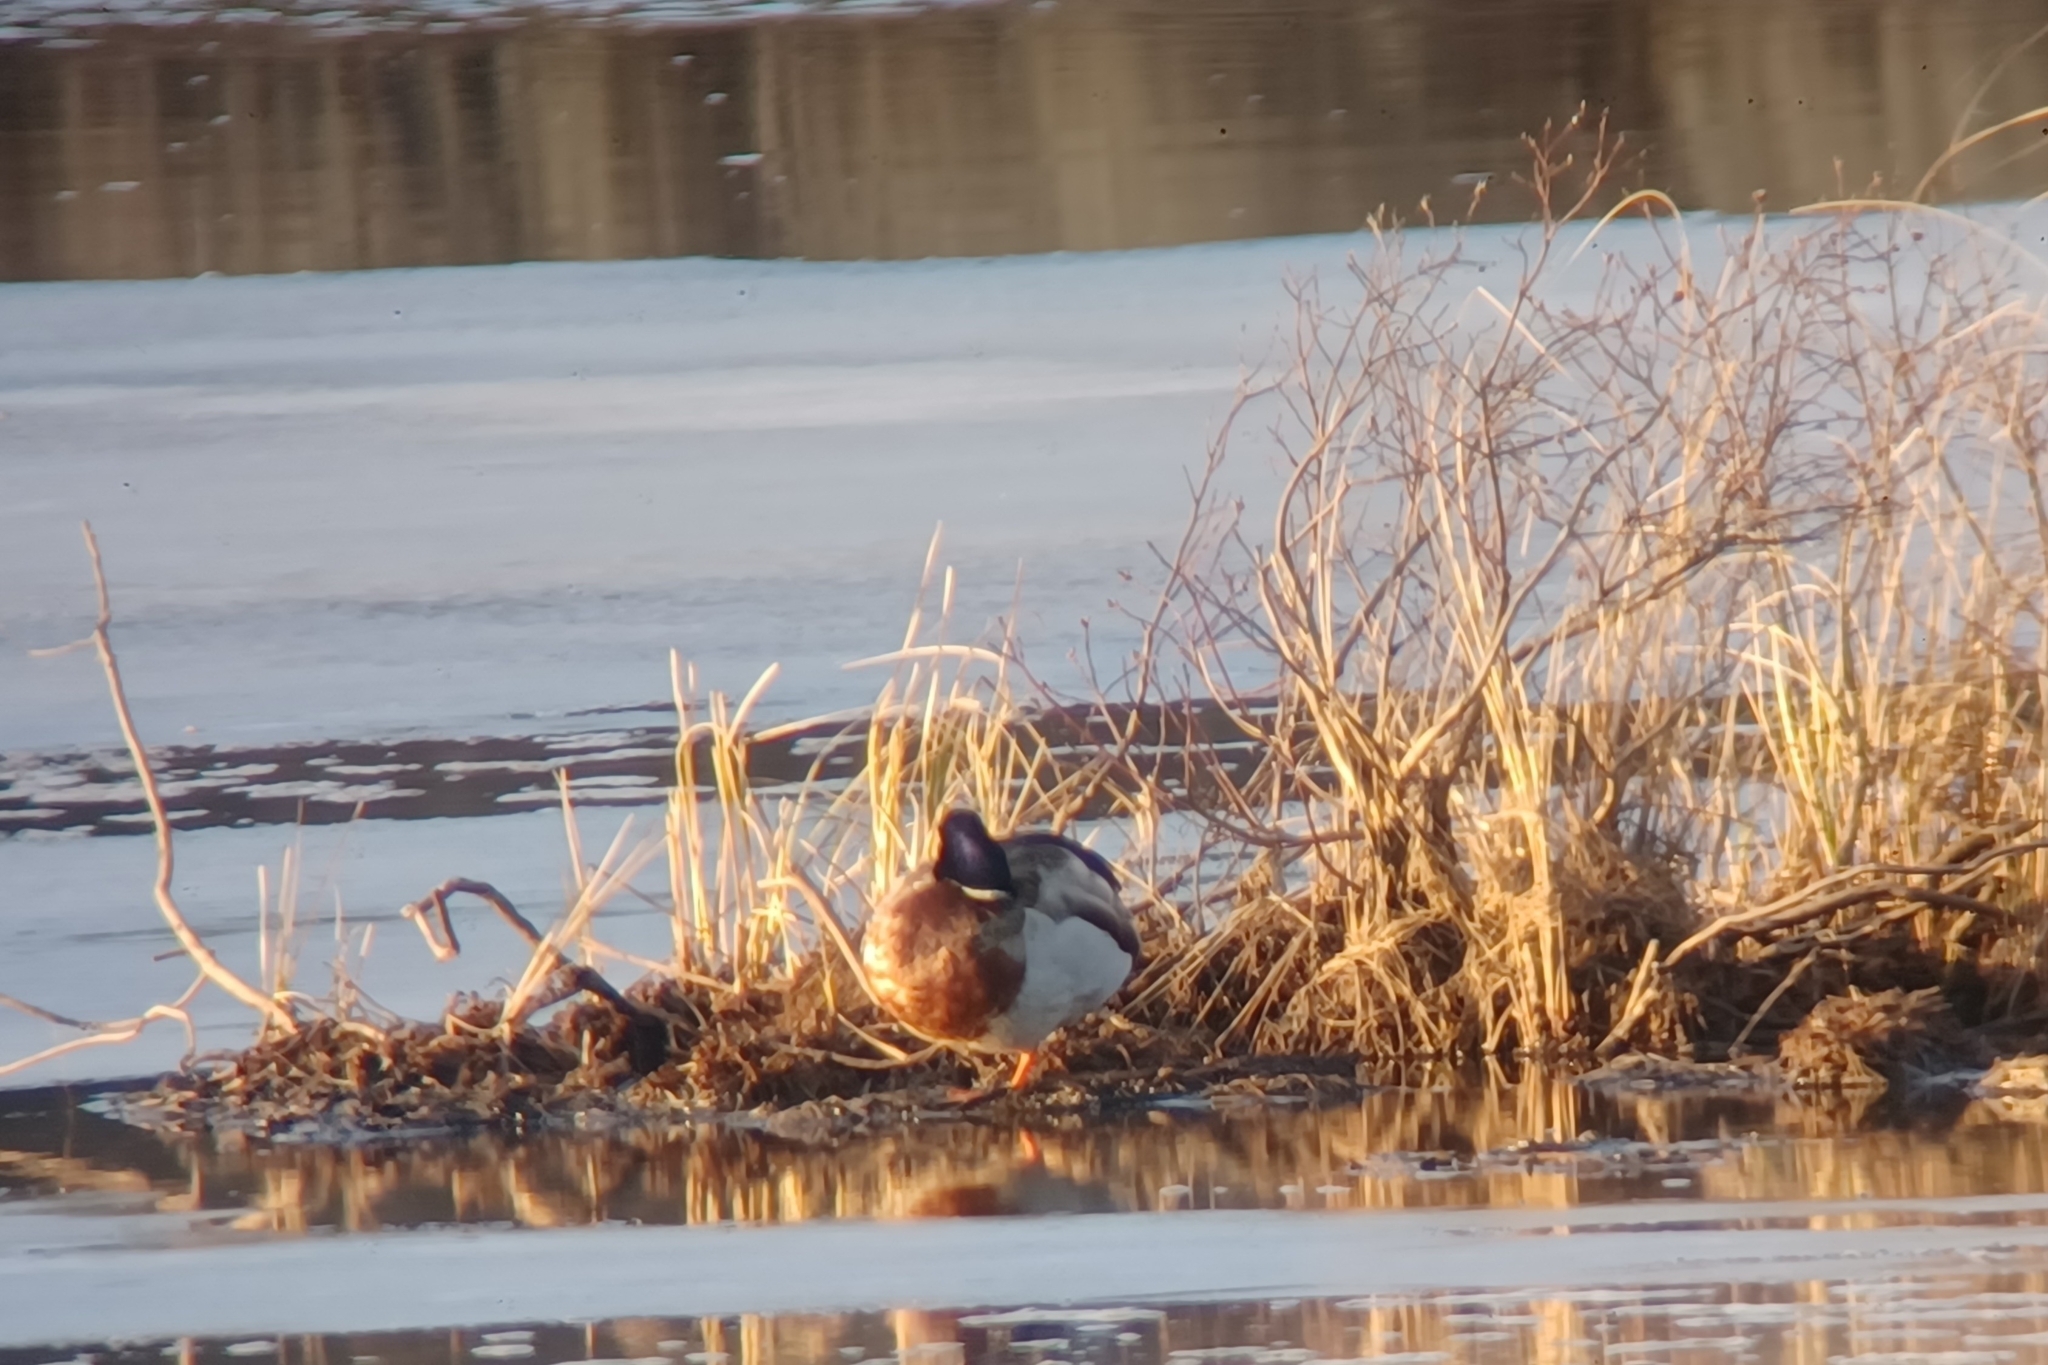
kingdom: Animalia
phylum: Chordata
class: Aves
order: Anseriformes
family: Anatidae
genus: Anas
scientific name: Anas platyrhynchos
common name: Mallard
